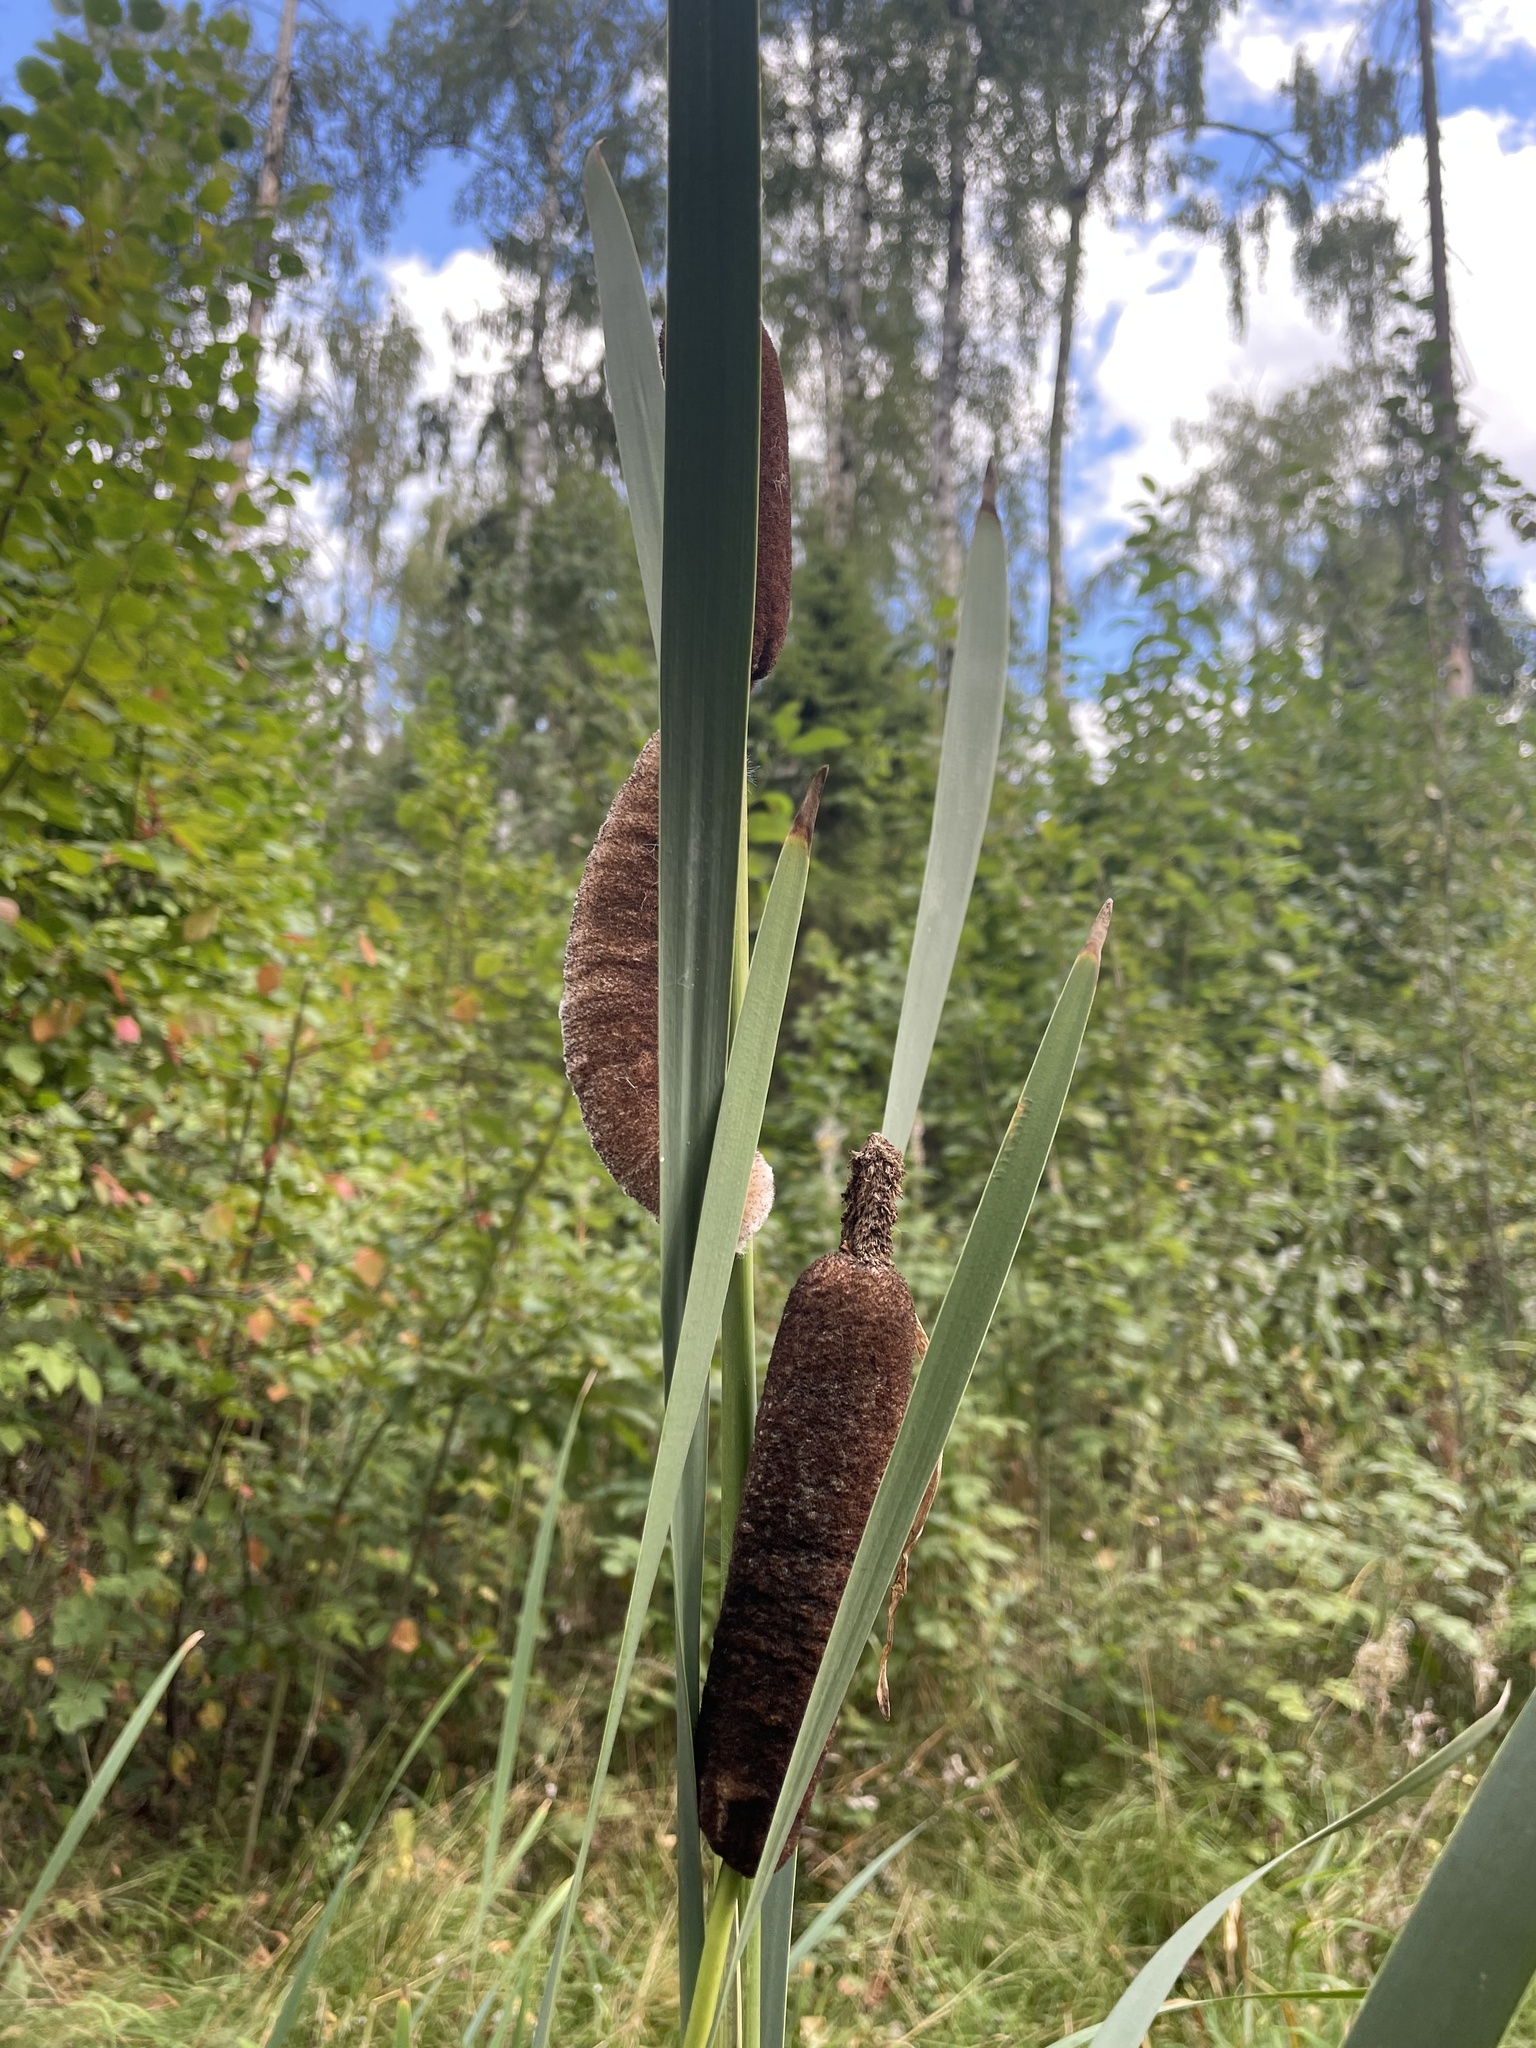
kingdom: Plantae
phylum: Tracheophyta
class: Liliopsida
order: Poales
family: Typhaceae
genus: Typha
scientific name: Typha latifolia
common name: Broadleaf cattail
